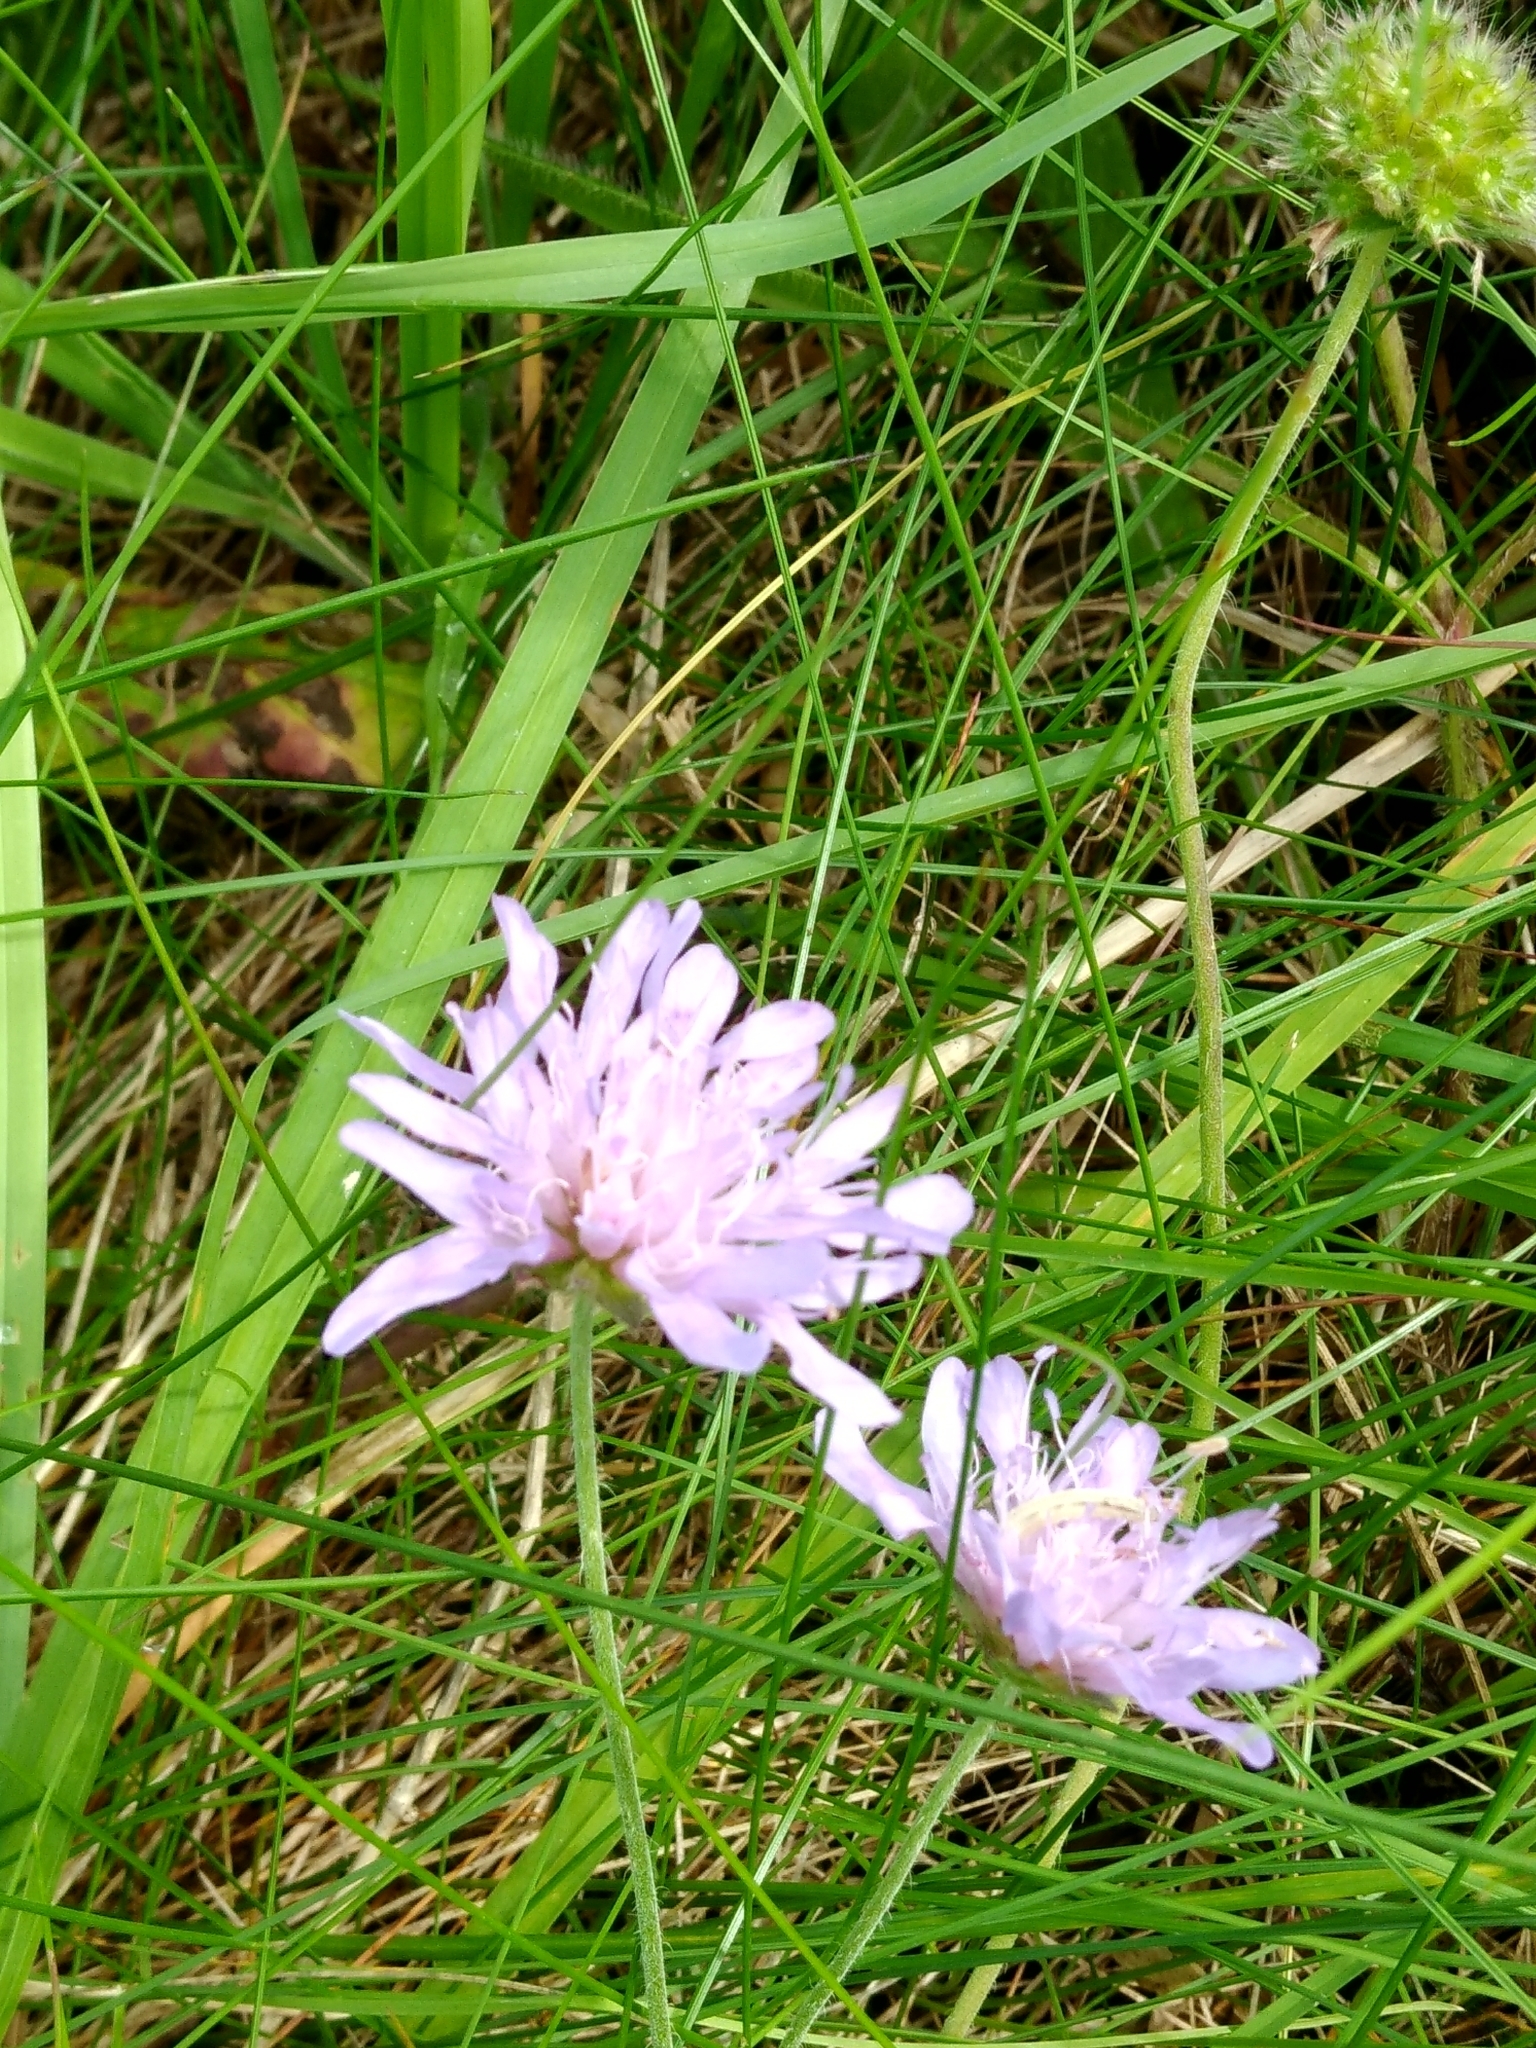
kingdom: Plantae
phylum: Tracheophyta
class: Magnoliopsida
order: Dipsacales
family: Caprifoliaceae
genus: Knautia
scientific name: Knautia arvensis
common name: Field scabiosa
